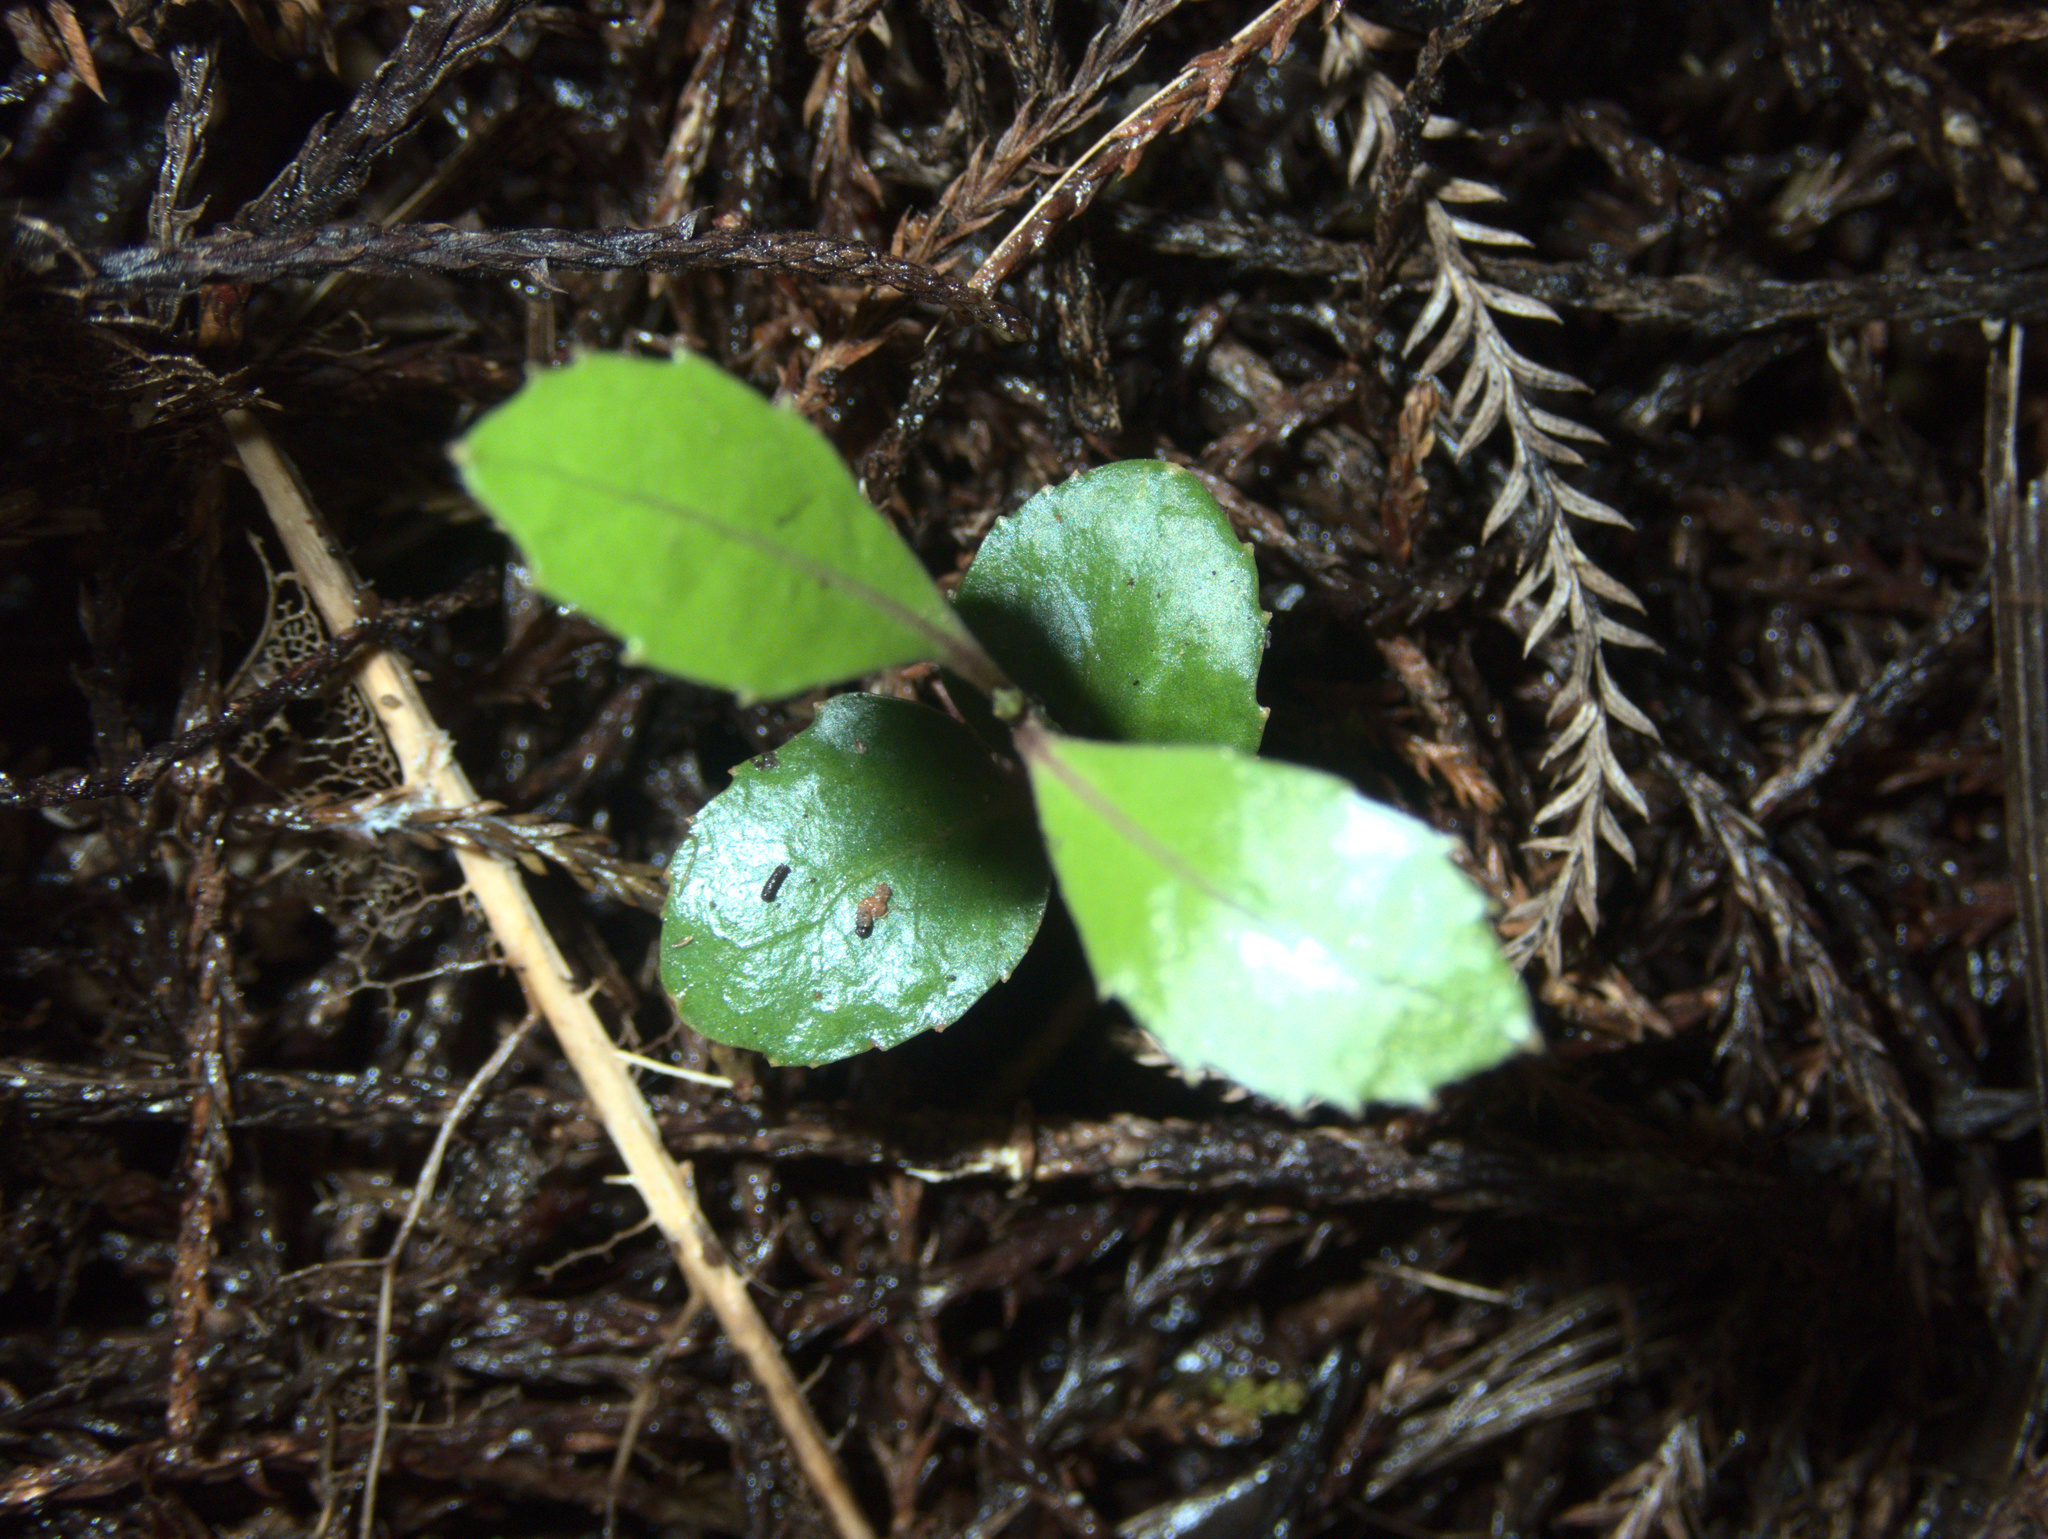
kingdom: Plantae
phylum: Tracheophyta
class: Magnoliopsida
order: Laurales
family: Monimiaceae
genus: Hedycarya
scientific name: Hedycarya arborea
